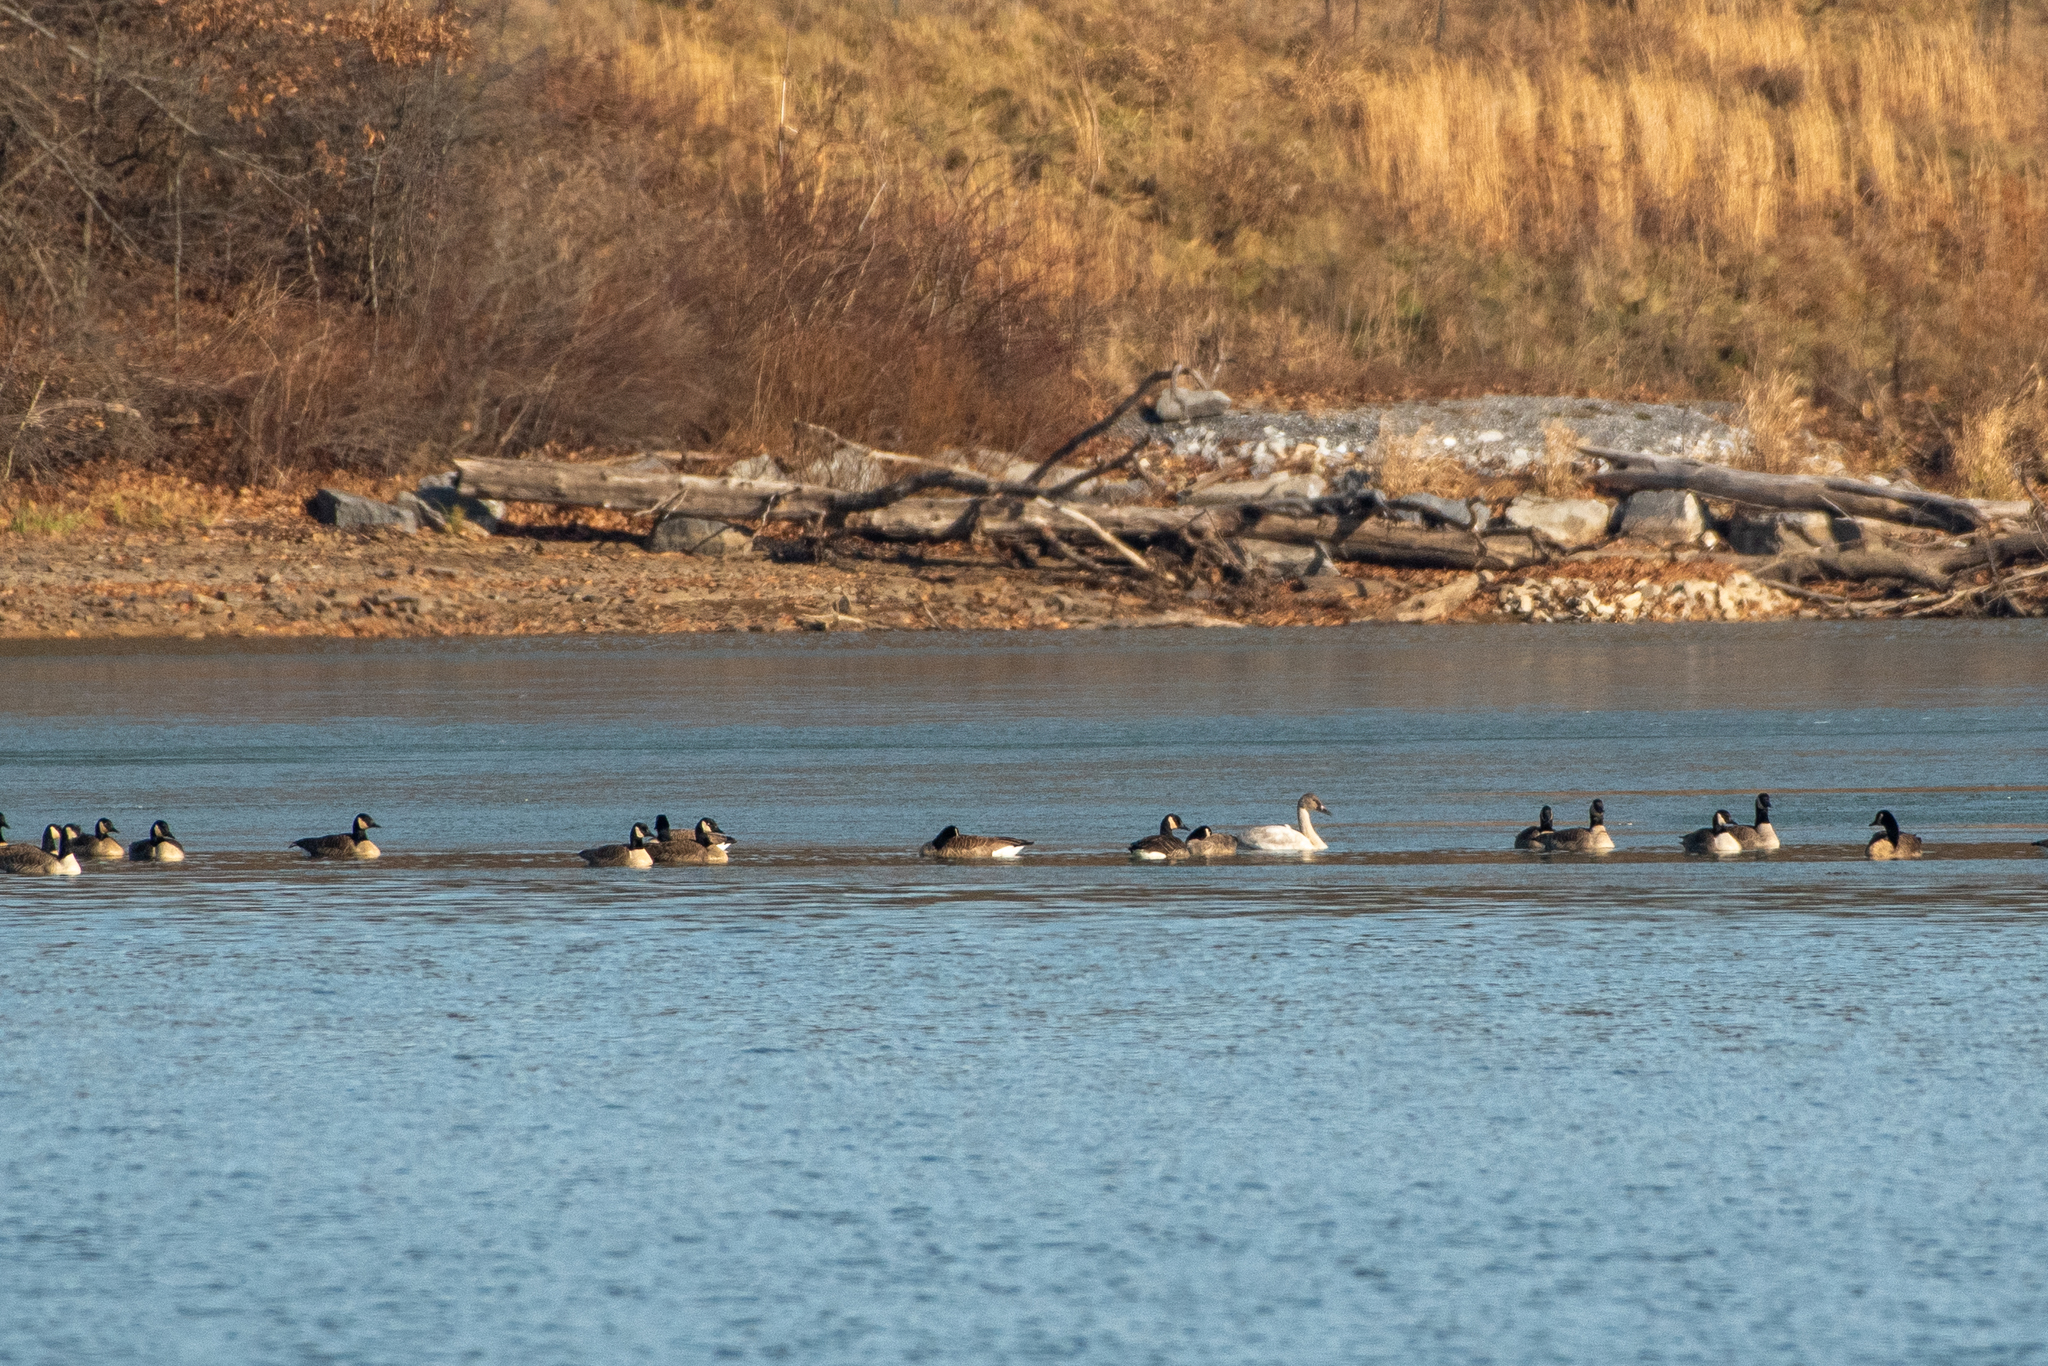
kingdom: Animalia
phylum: Chordata
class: Aves
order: Anseriformes
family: Anatidae
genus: Cygnus
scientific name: Cygnus columbianus
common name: Tundra swan
